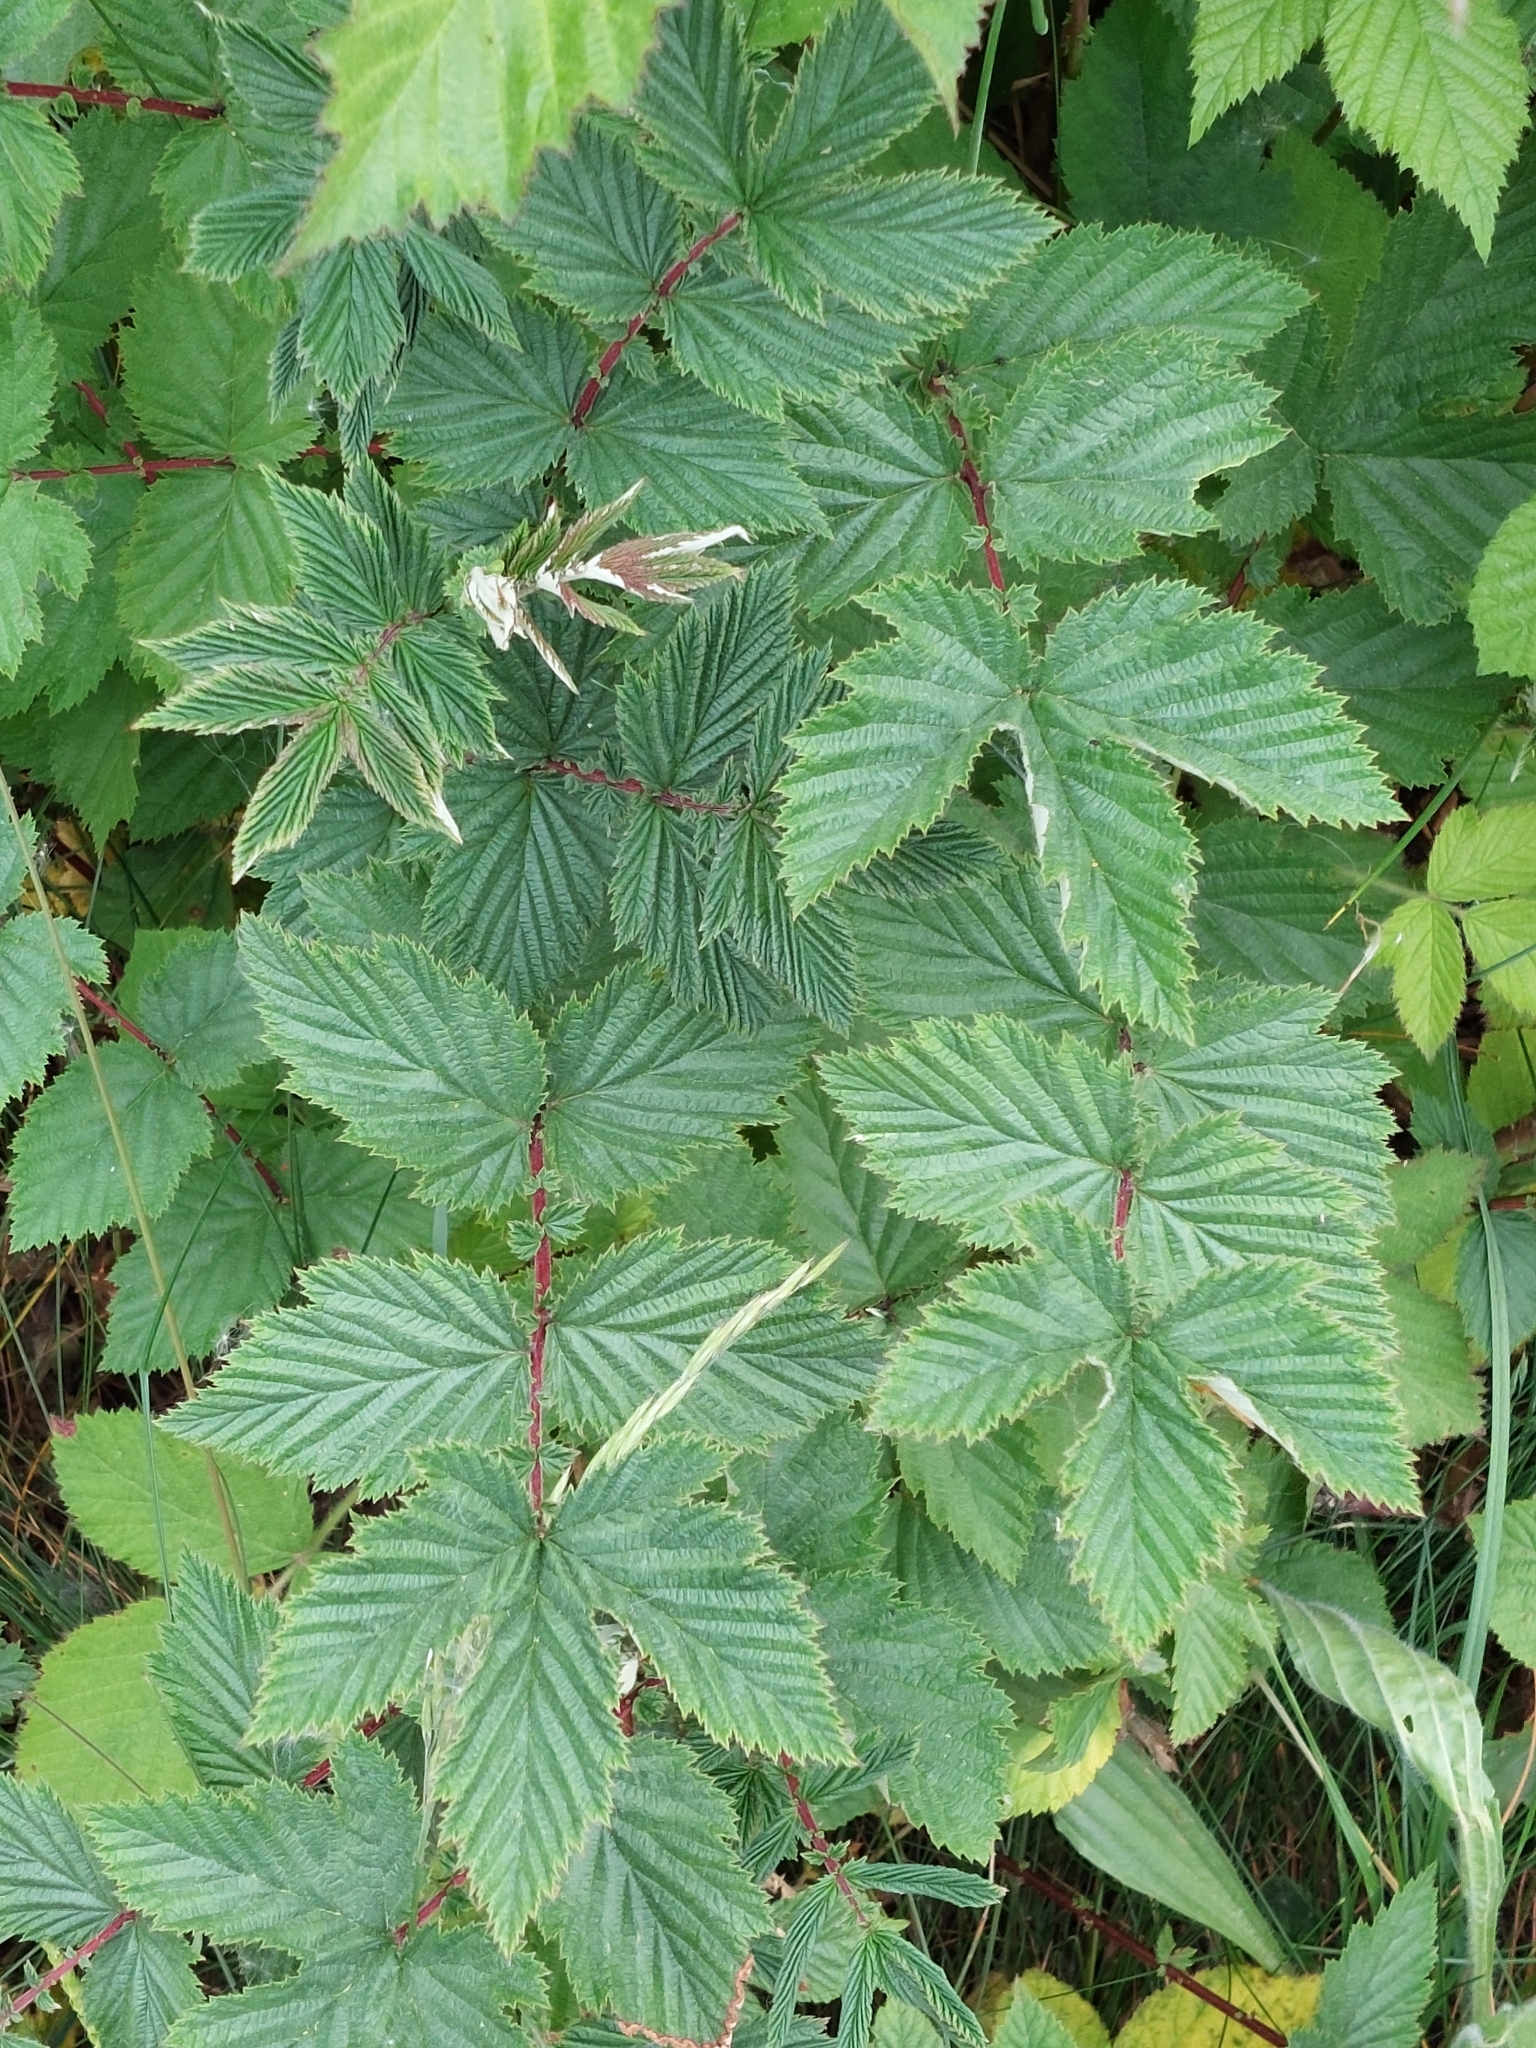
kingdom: Plantae
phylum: Tracheophyta
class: Magnoliopsida
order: Rosales
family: Rosaceae
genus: Filipendula
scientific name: Filipendula ulmaria
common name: Meadowsweet
